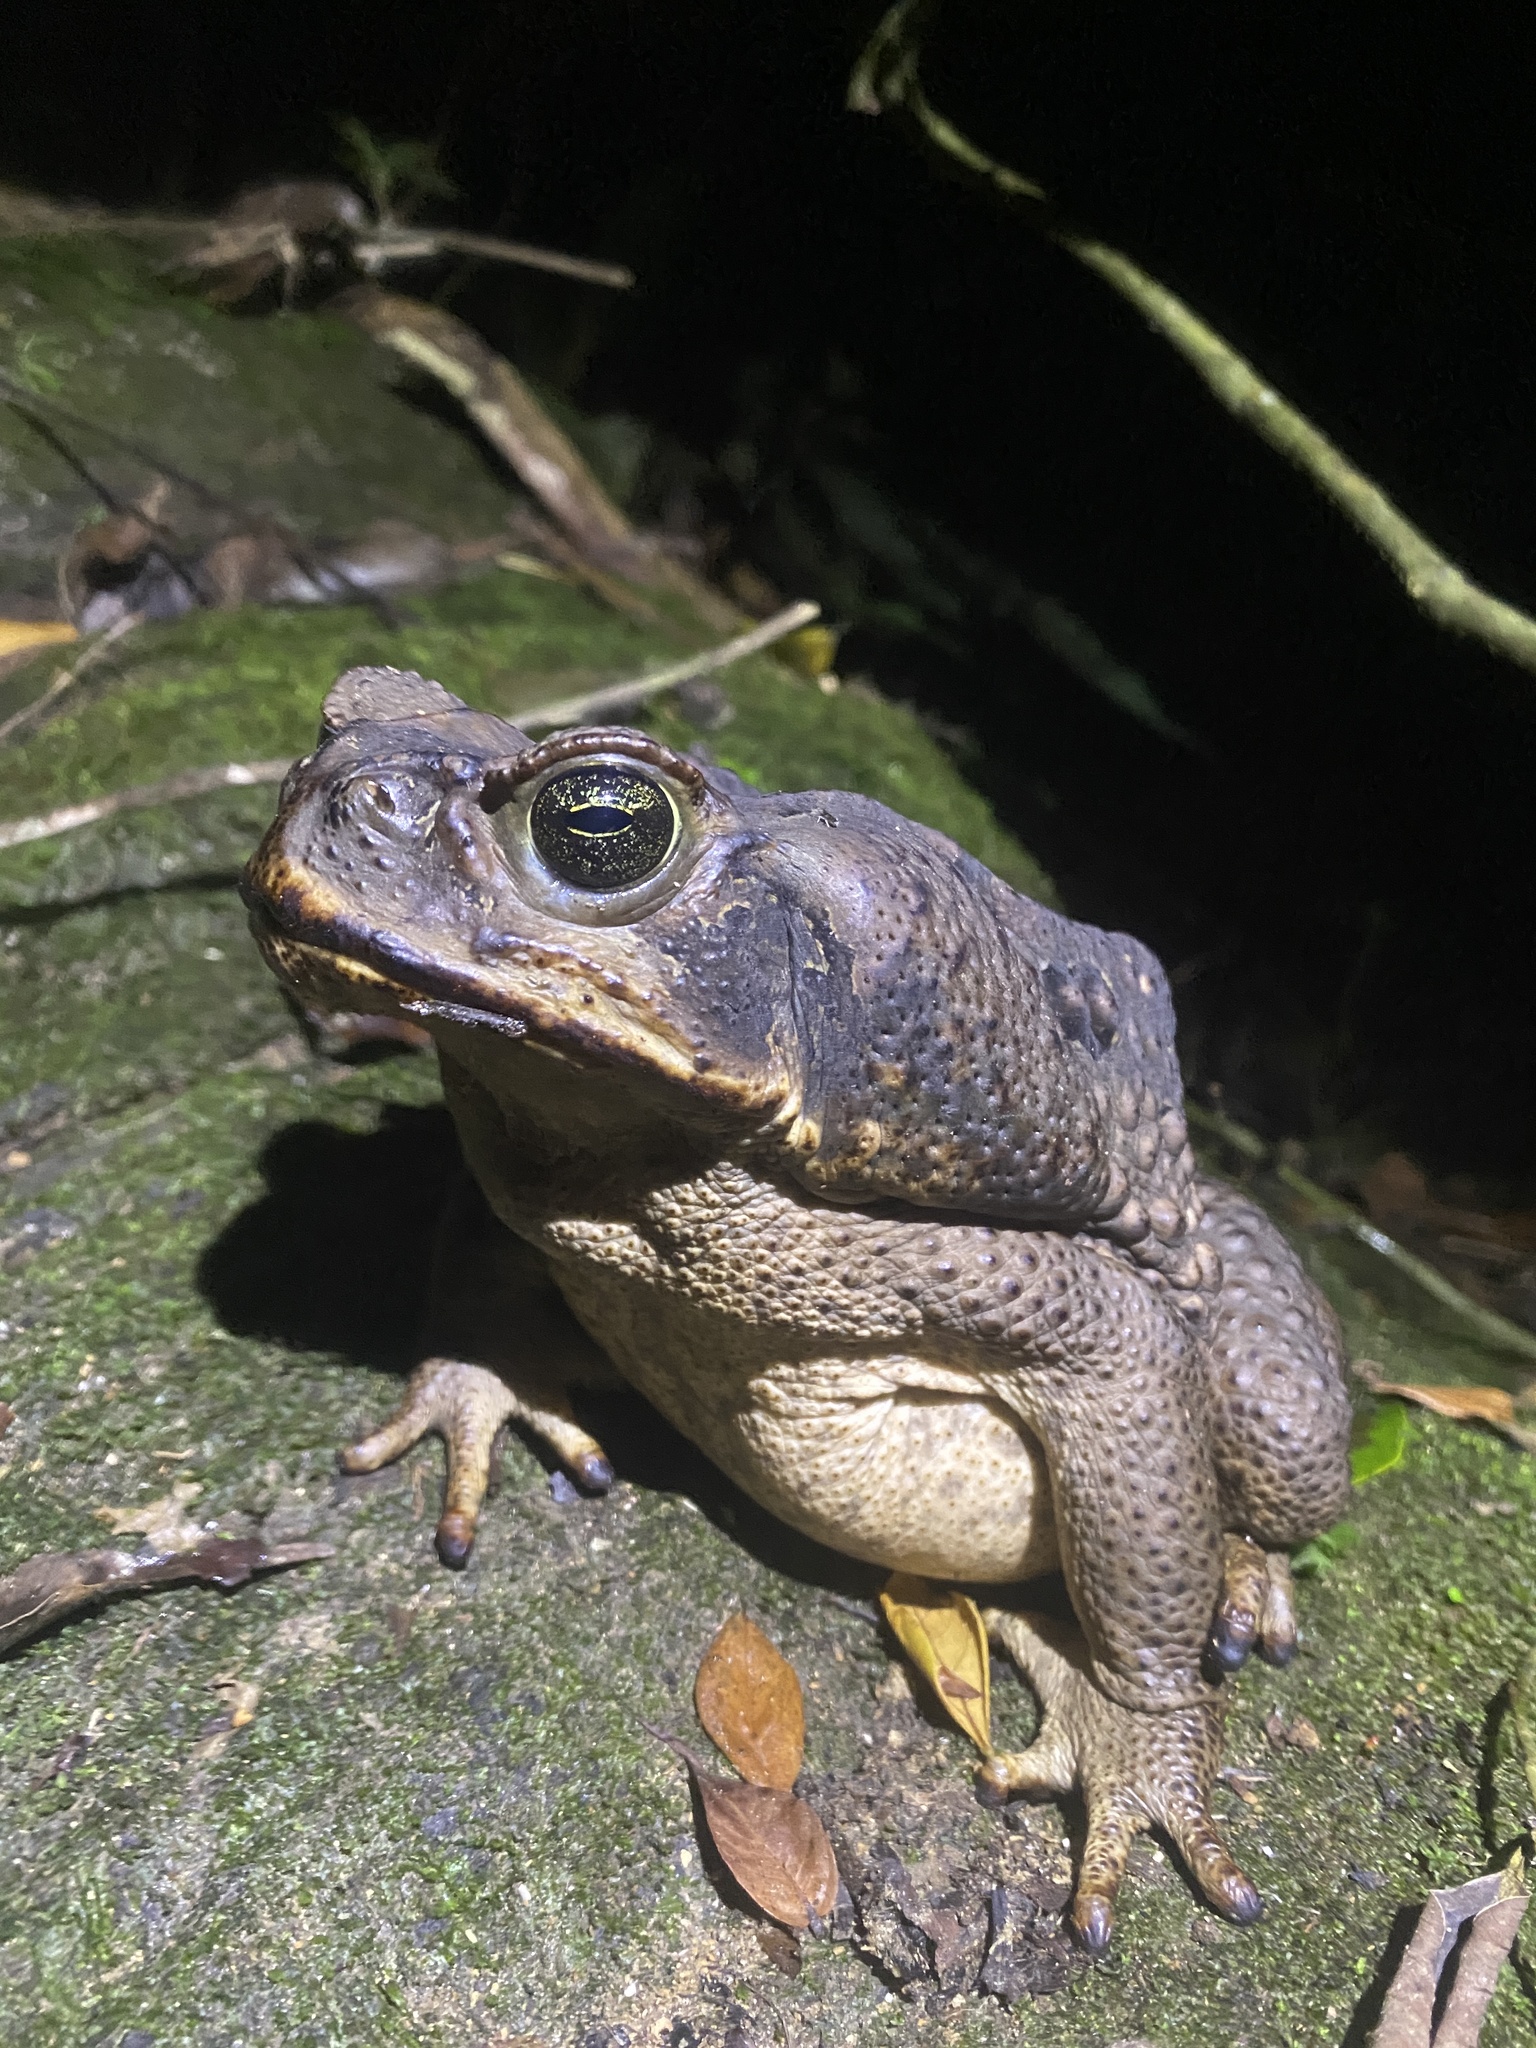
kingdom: Animalia
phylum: Chordata
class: Amphibia
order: Anura
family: Bufonidae
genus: Rhinella
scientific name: Rhinella marina
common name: Cane toad
